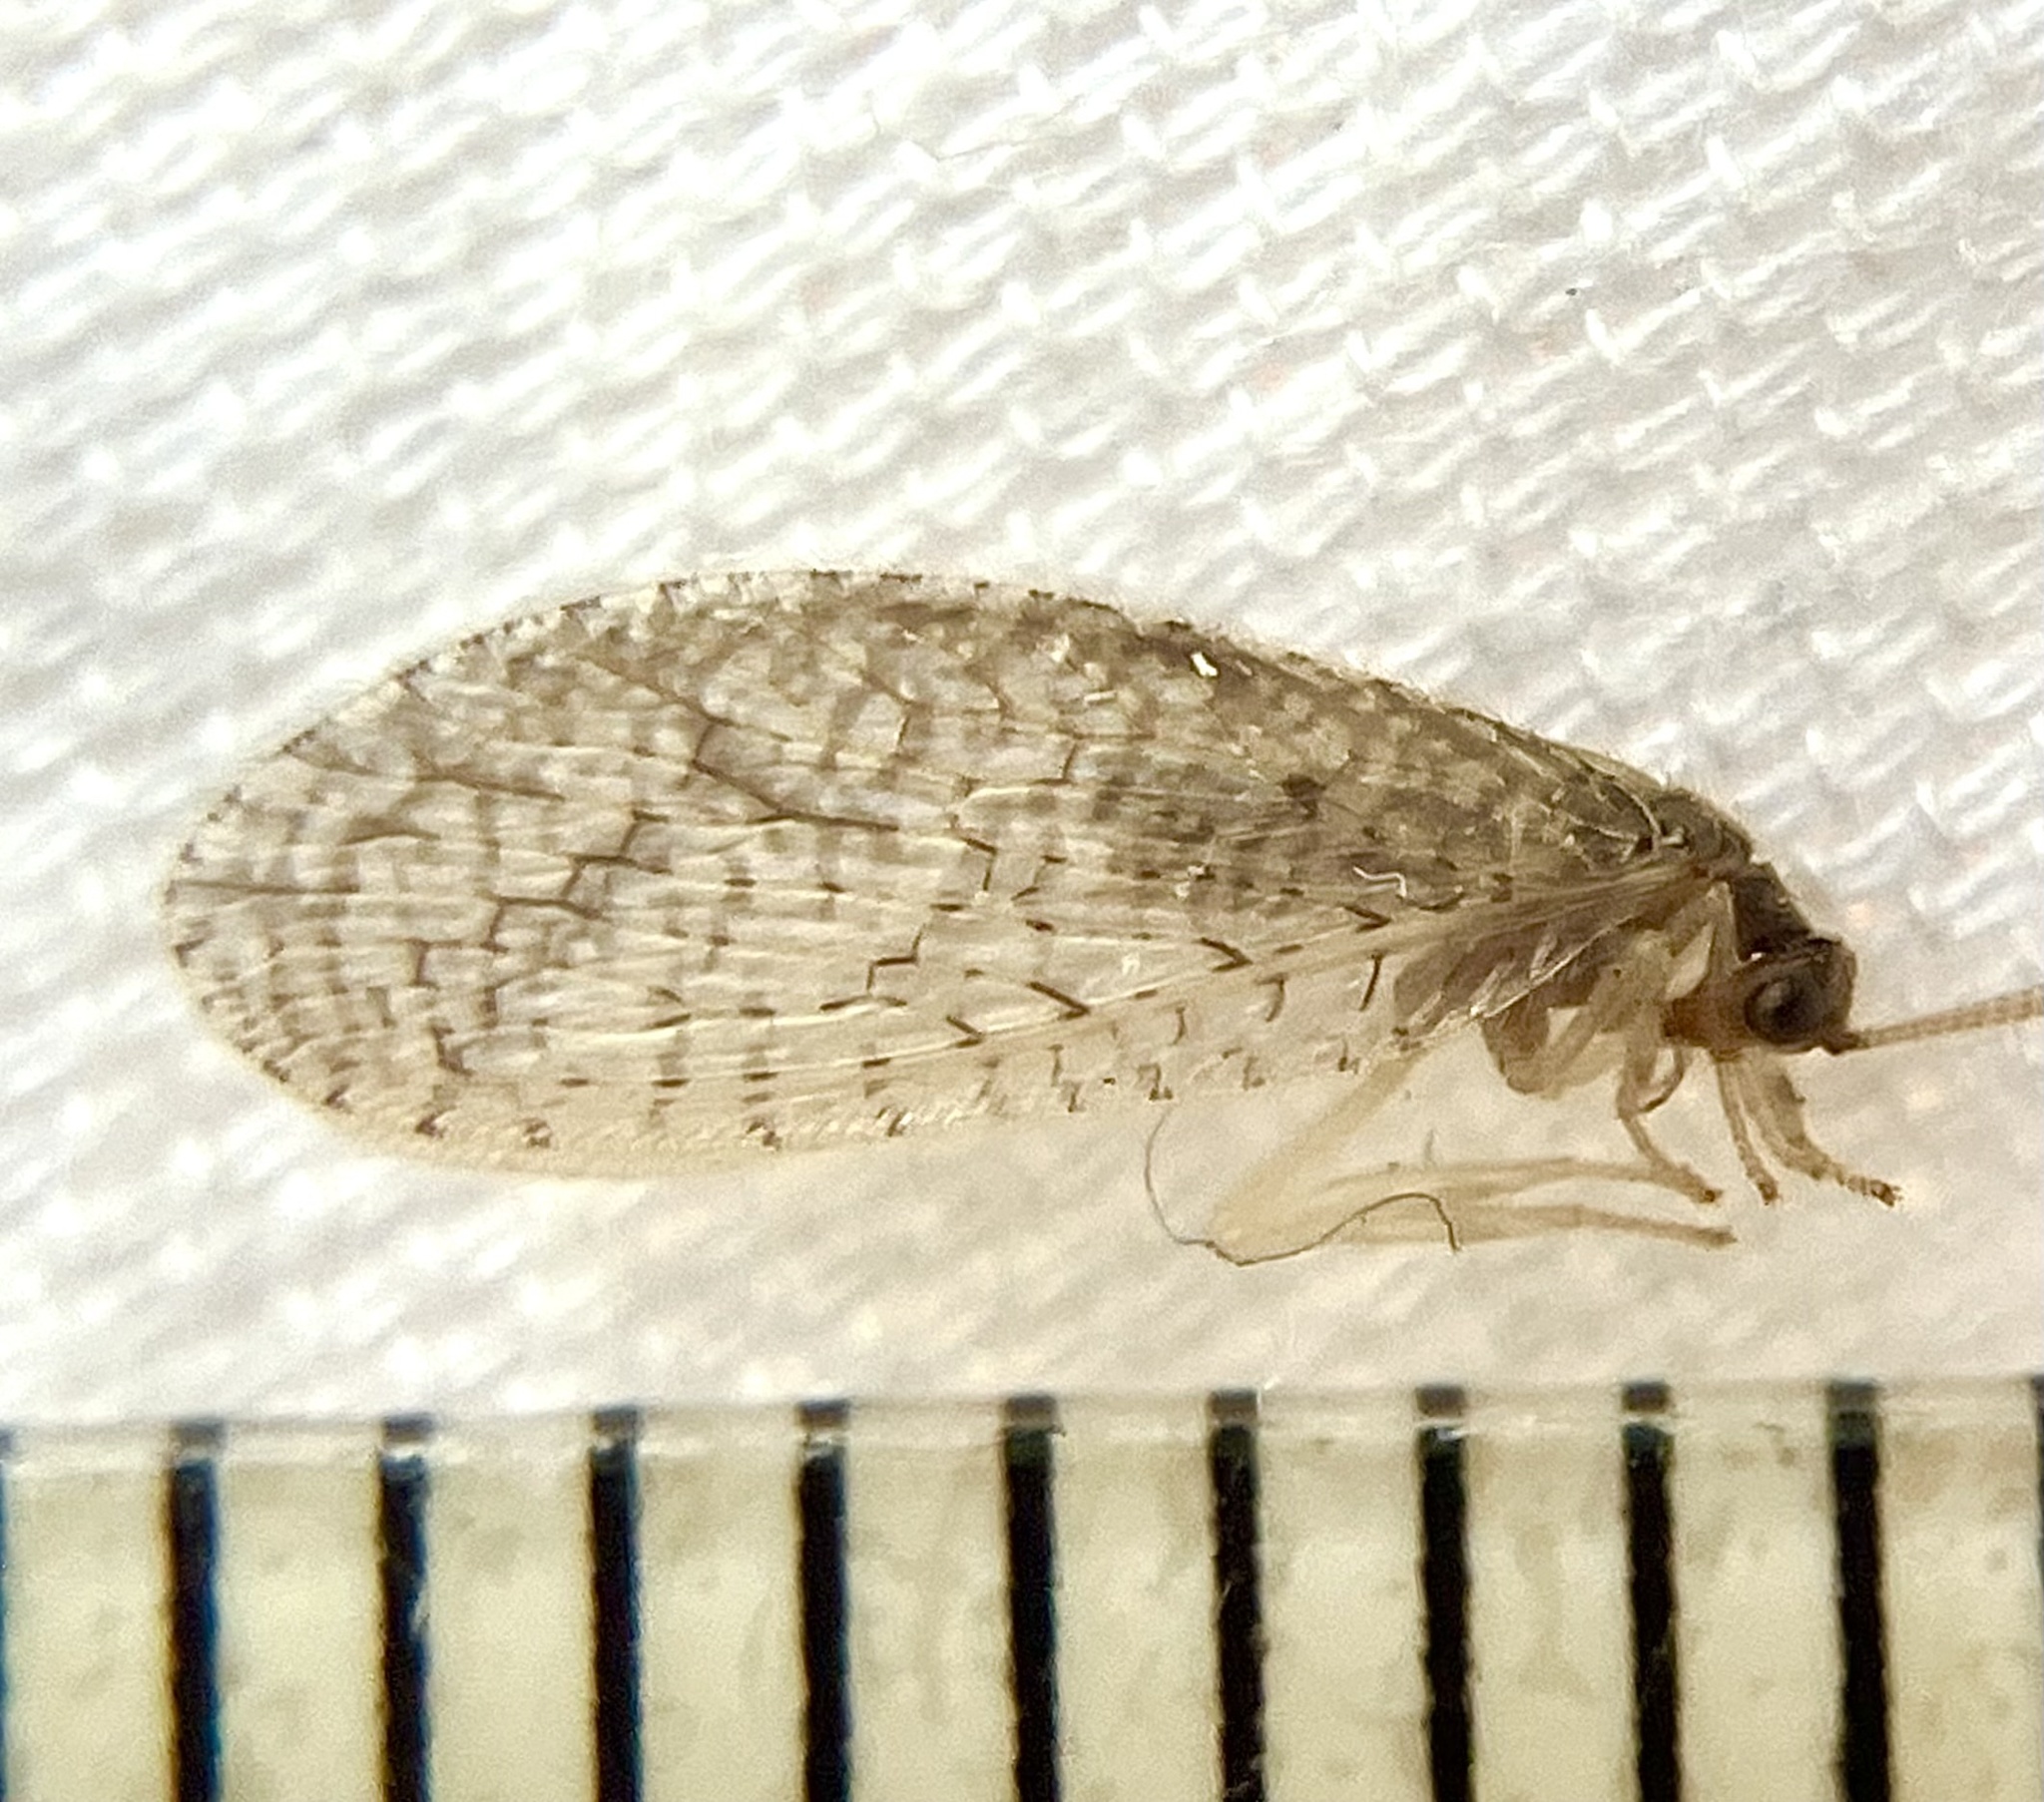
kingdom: Animalia
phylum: Arthropoda
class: Insecta
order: Neuroptera
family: Hemerobiidae
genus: Micromus
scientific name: Micromus posticus
